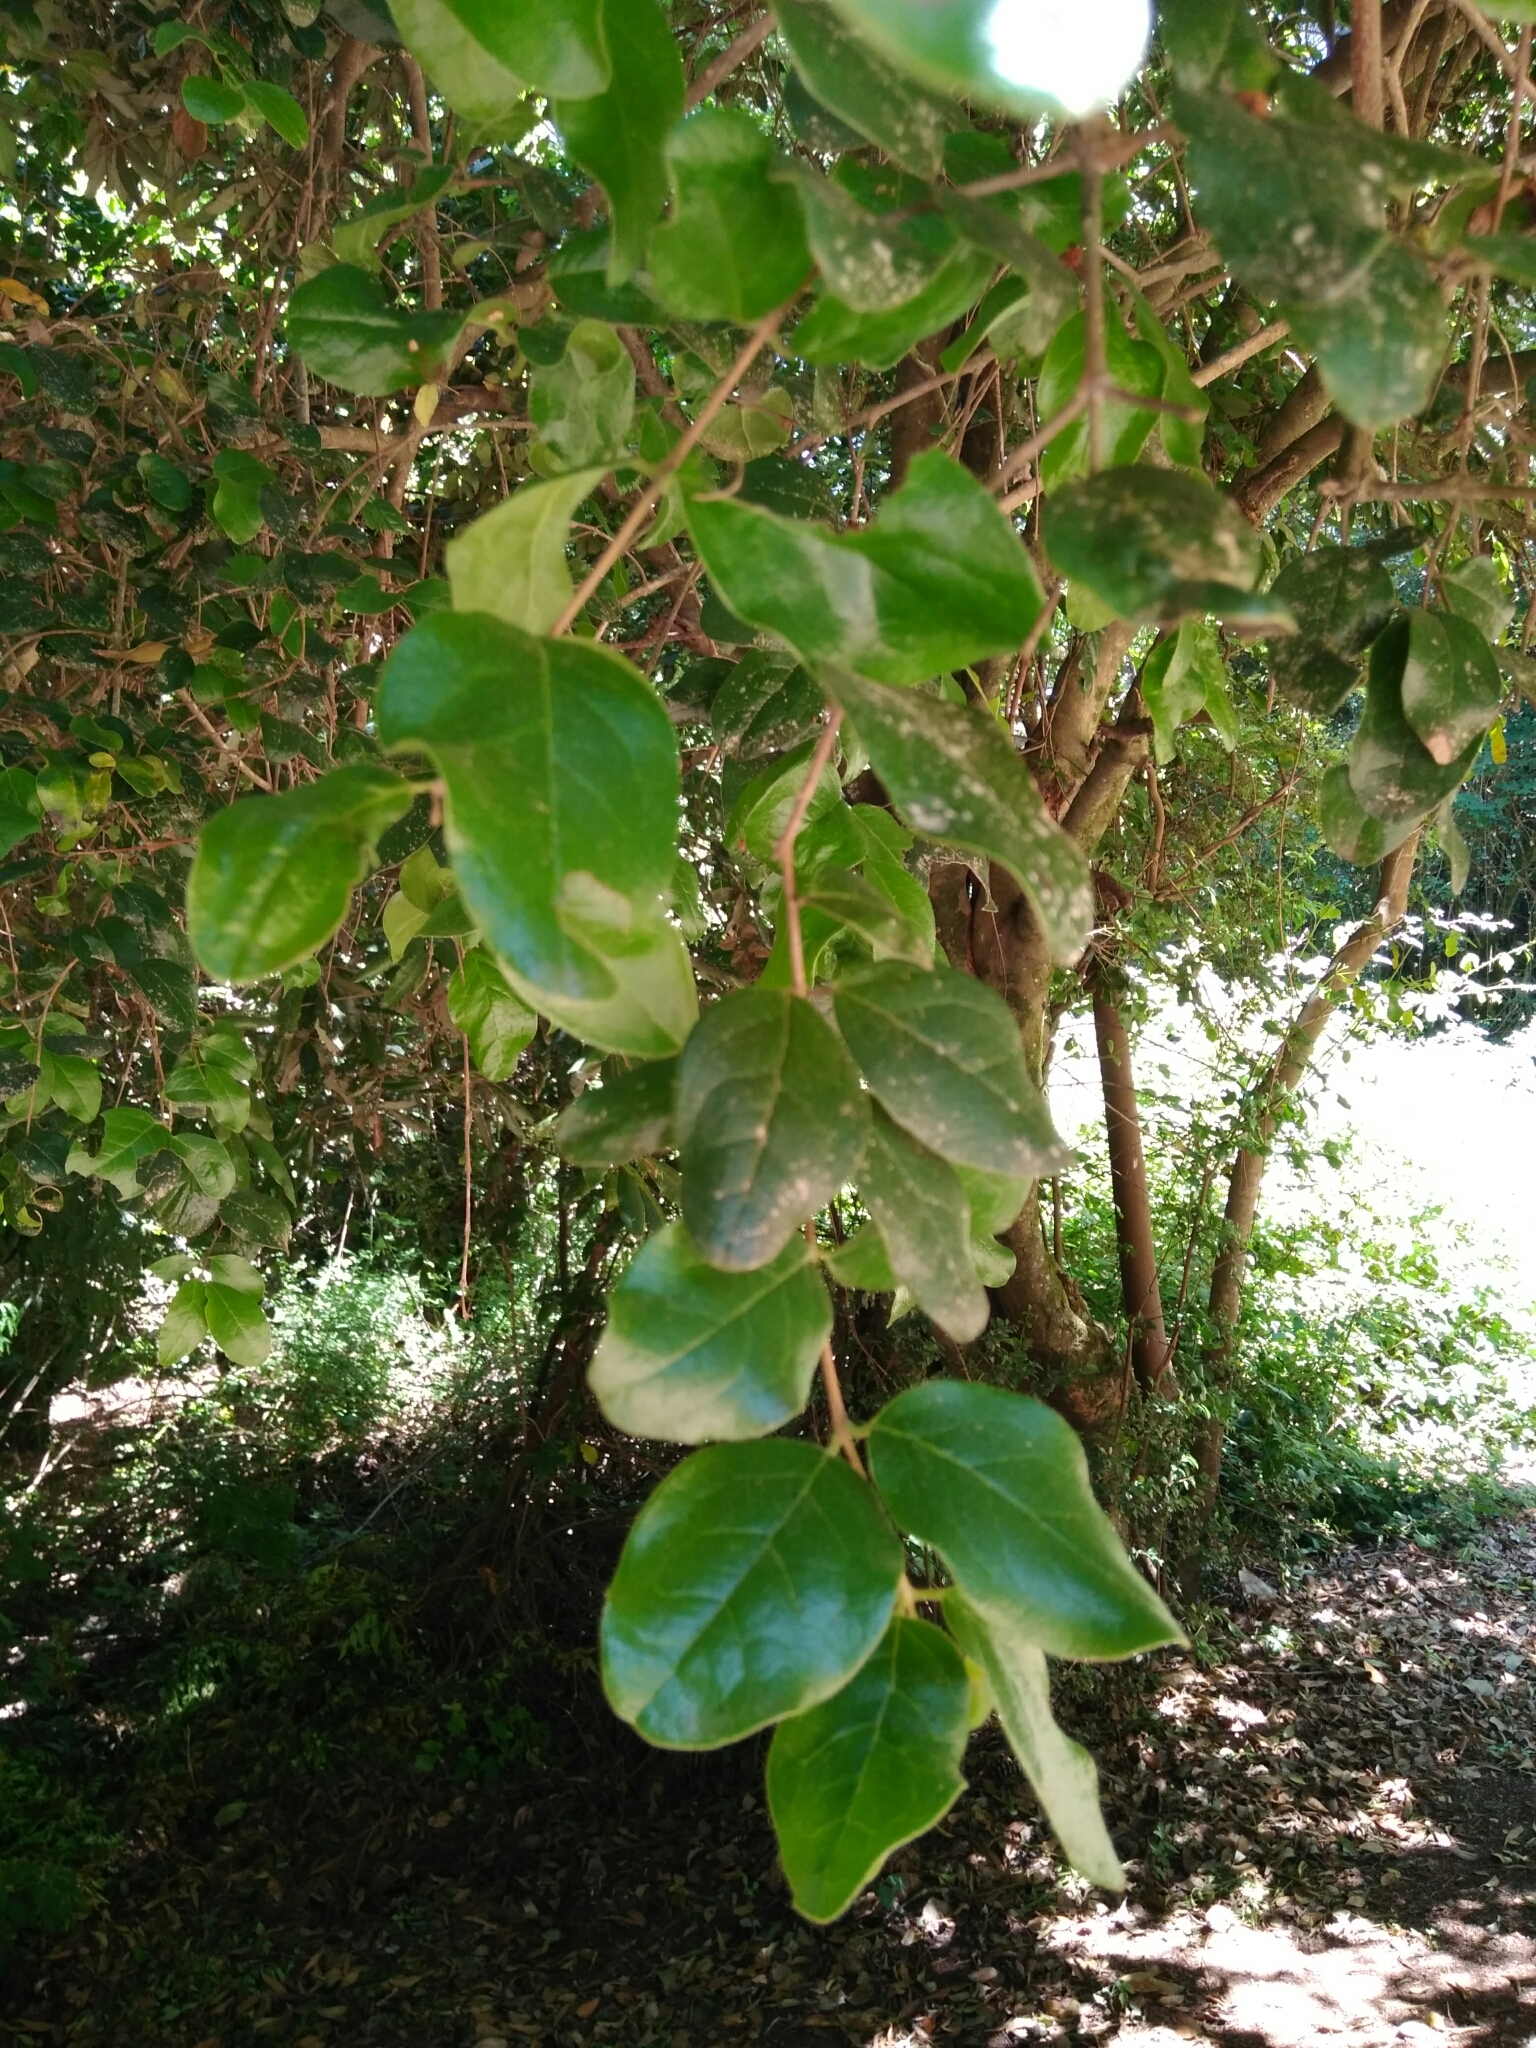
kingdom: Plantae
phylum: Tracheophyta
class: Magnoliopsida
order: Laurales
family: Monimiaceae
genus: Peumus
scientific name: Peumus boldus
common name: Boldo
